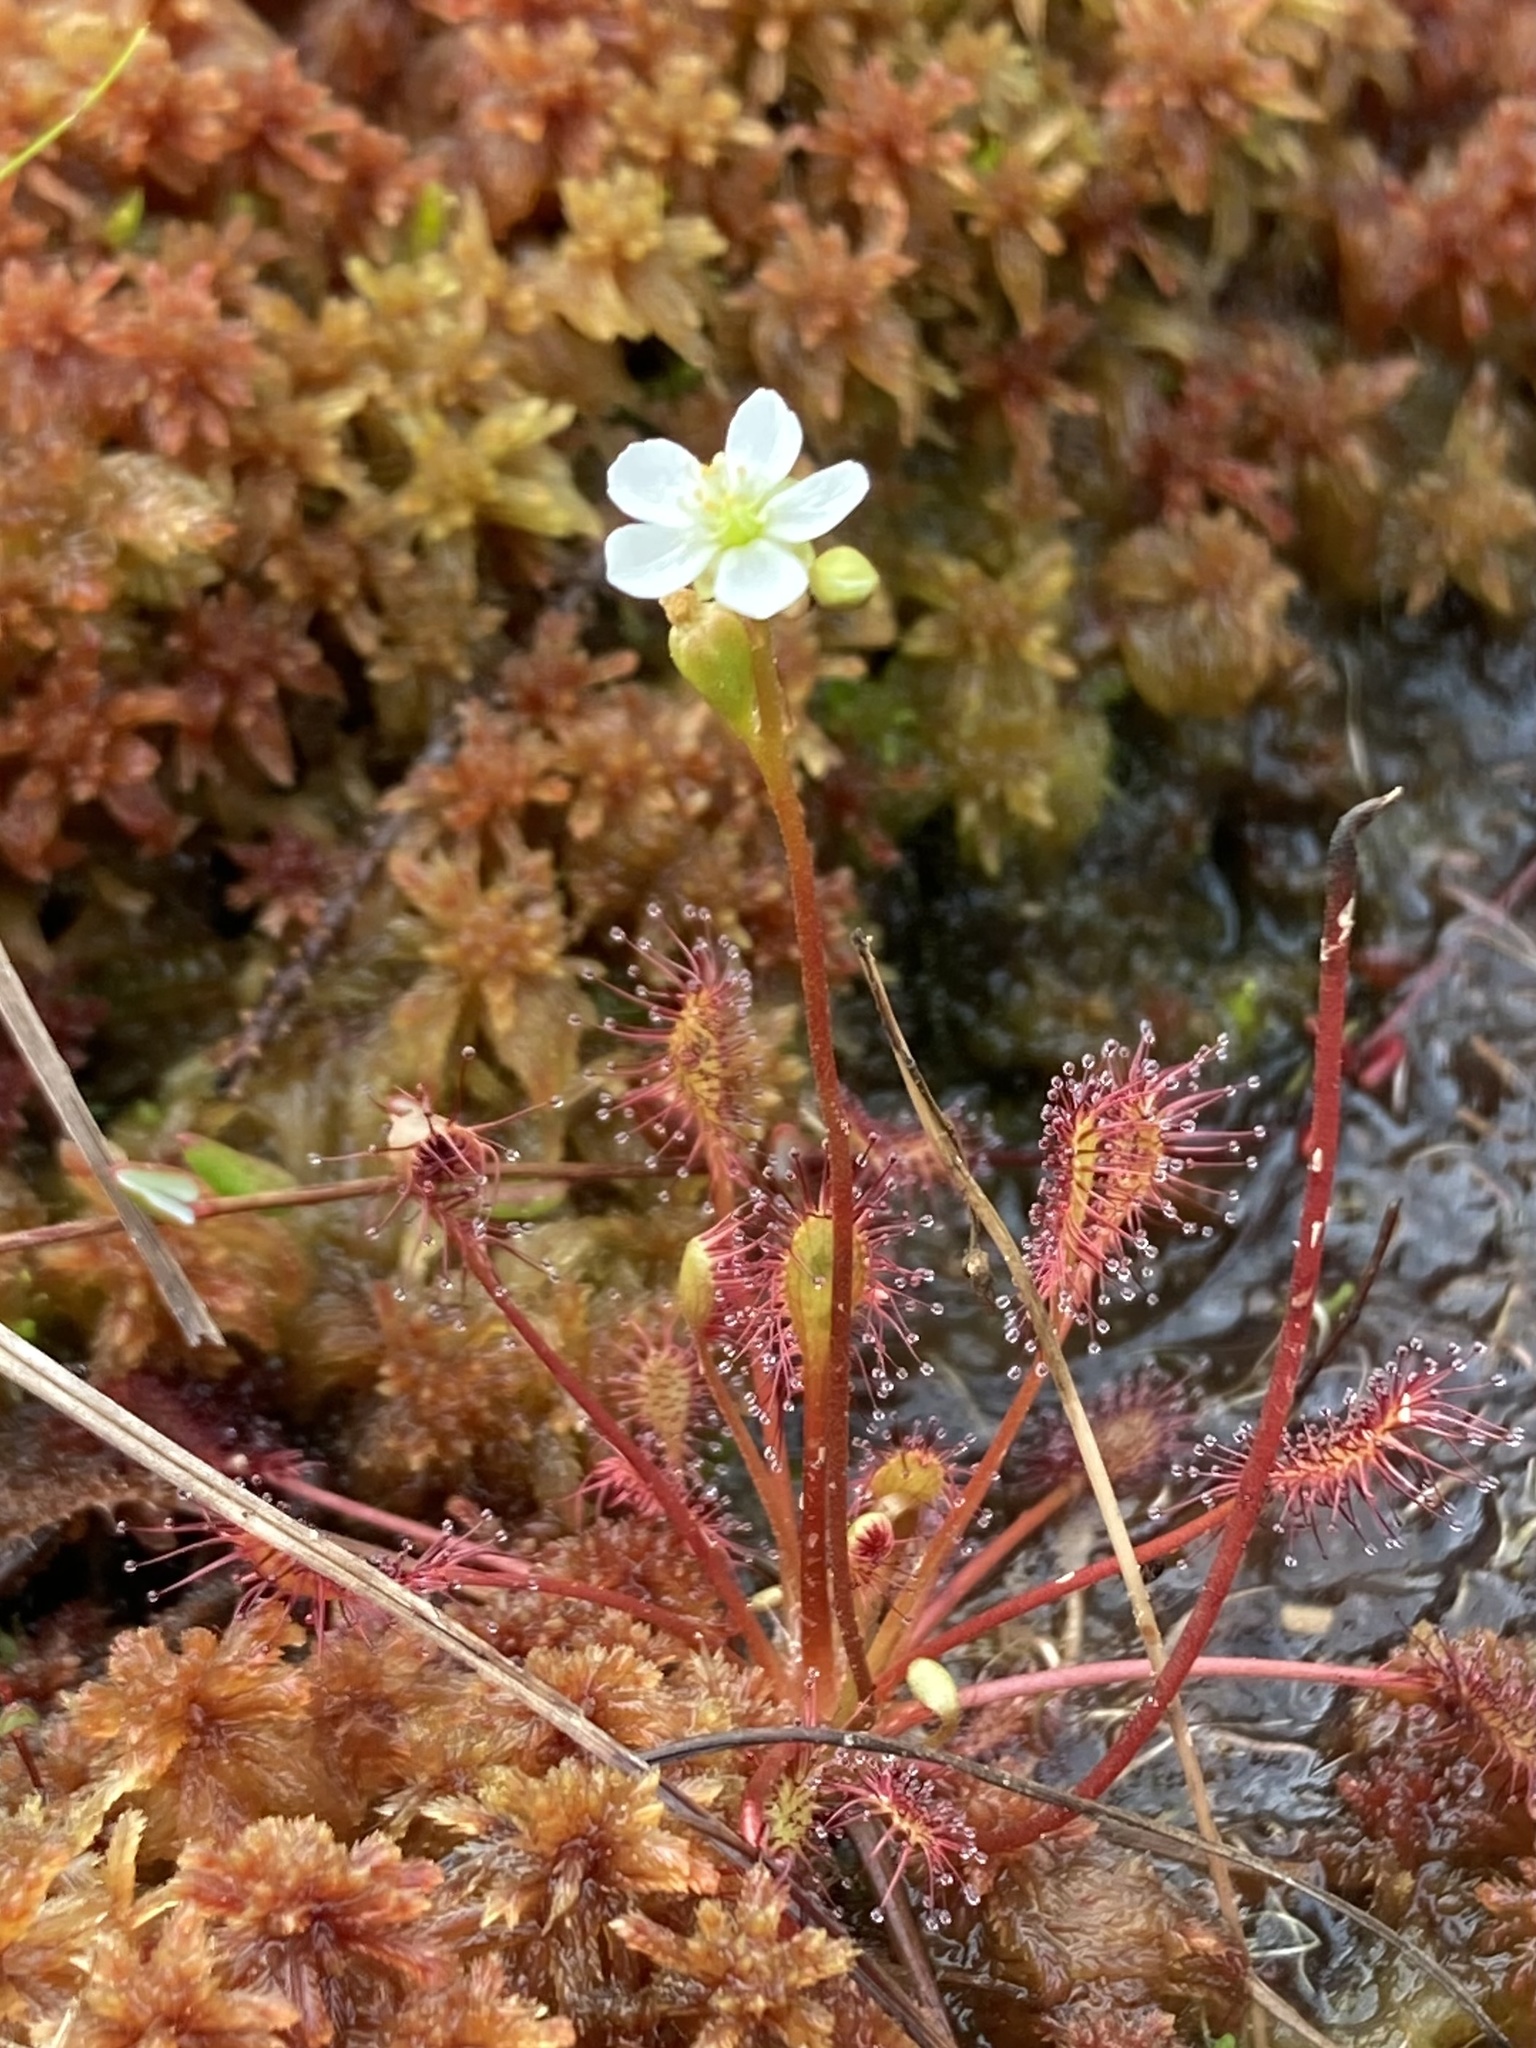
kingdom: Plantae
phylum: Tracheophyta
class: Magnoliopsida
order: Caryophyllales
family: Droseraceae
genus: Drosera
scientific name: Drosera intermedia
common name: Oblong-leaved sundew
